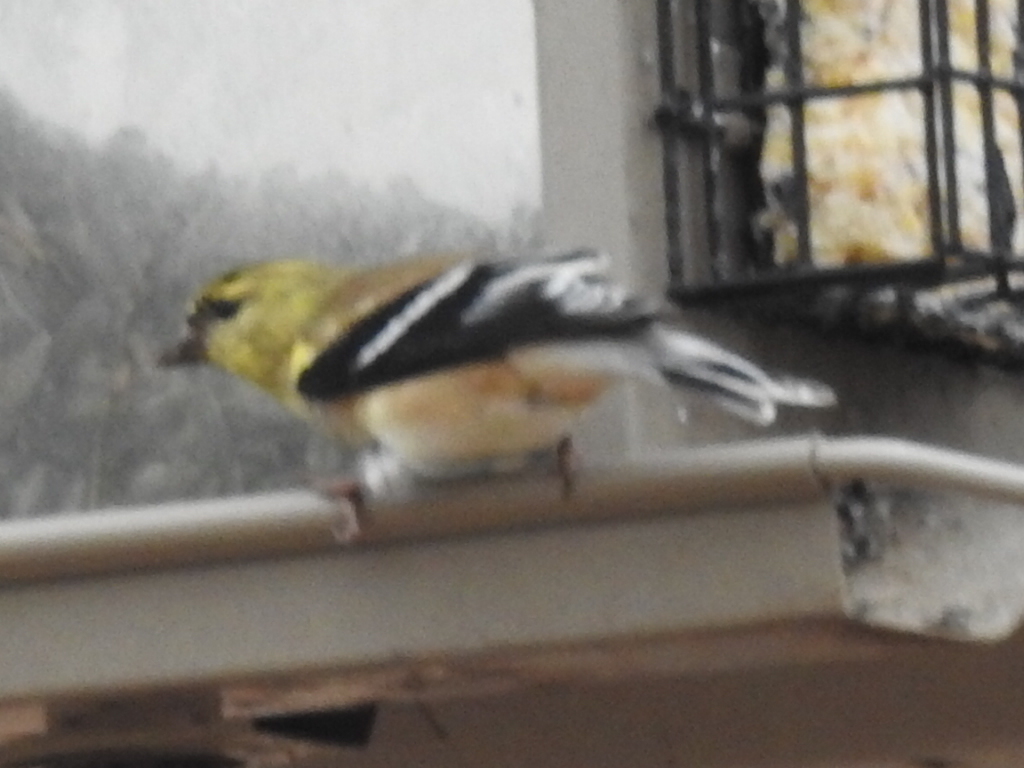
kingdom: Animalia
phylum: Chordata
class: Aves
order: Passeriformes
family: Fringillidae
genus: Spinus
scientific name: Spinus tristis
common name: American goldfinch
